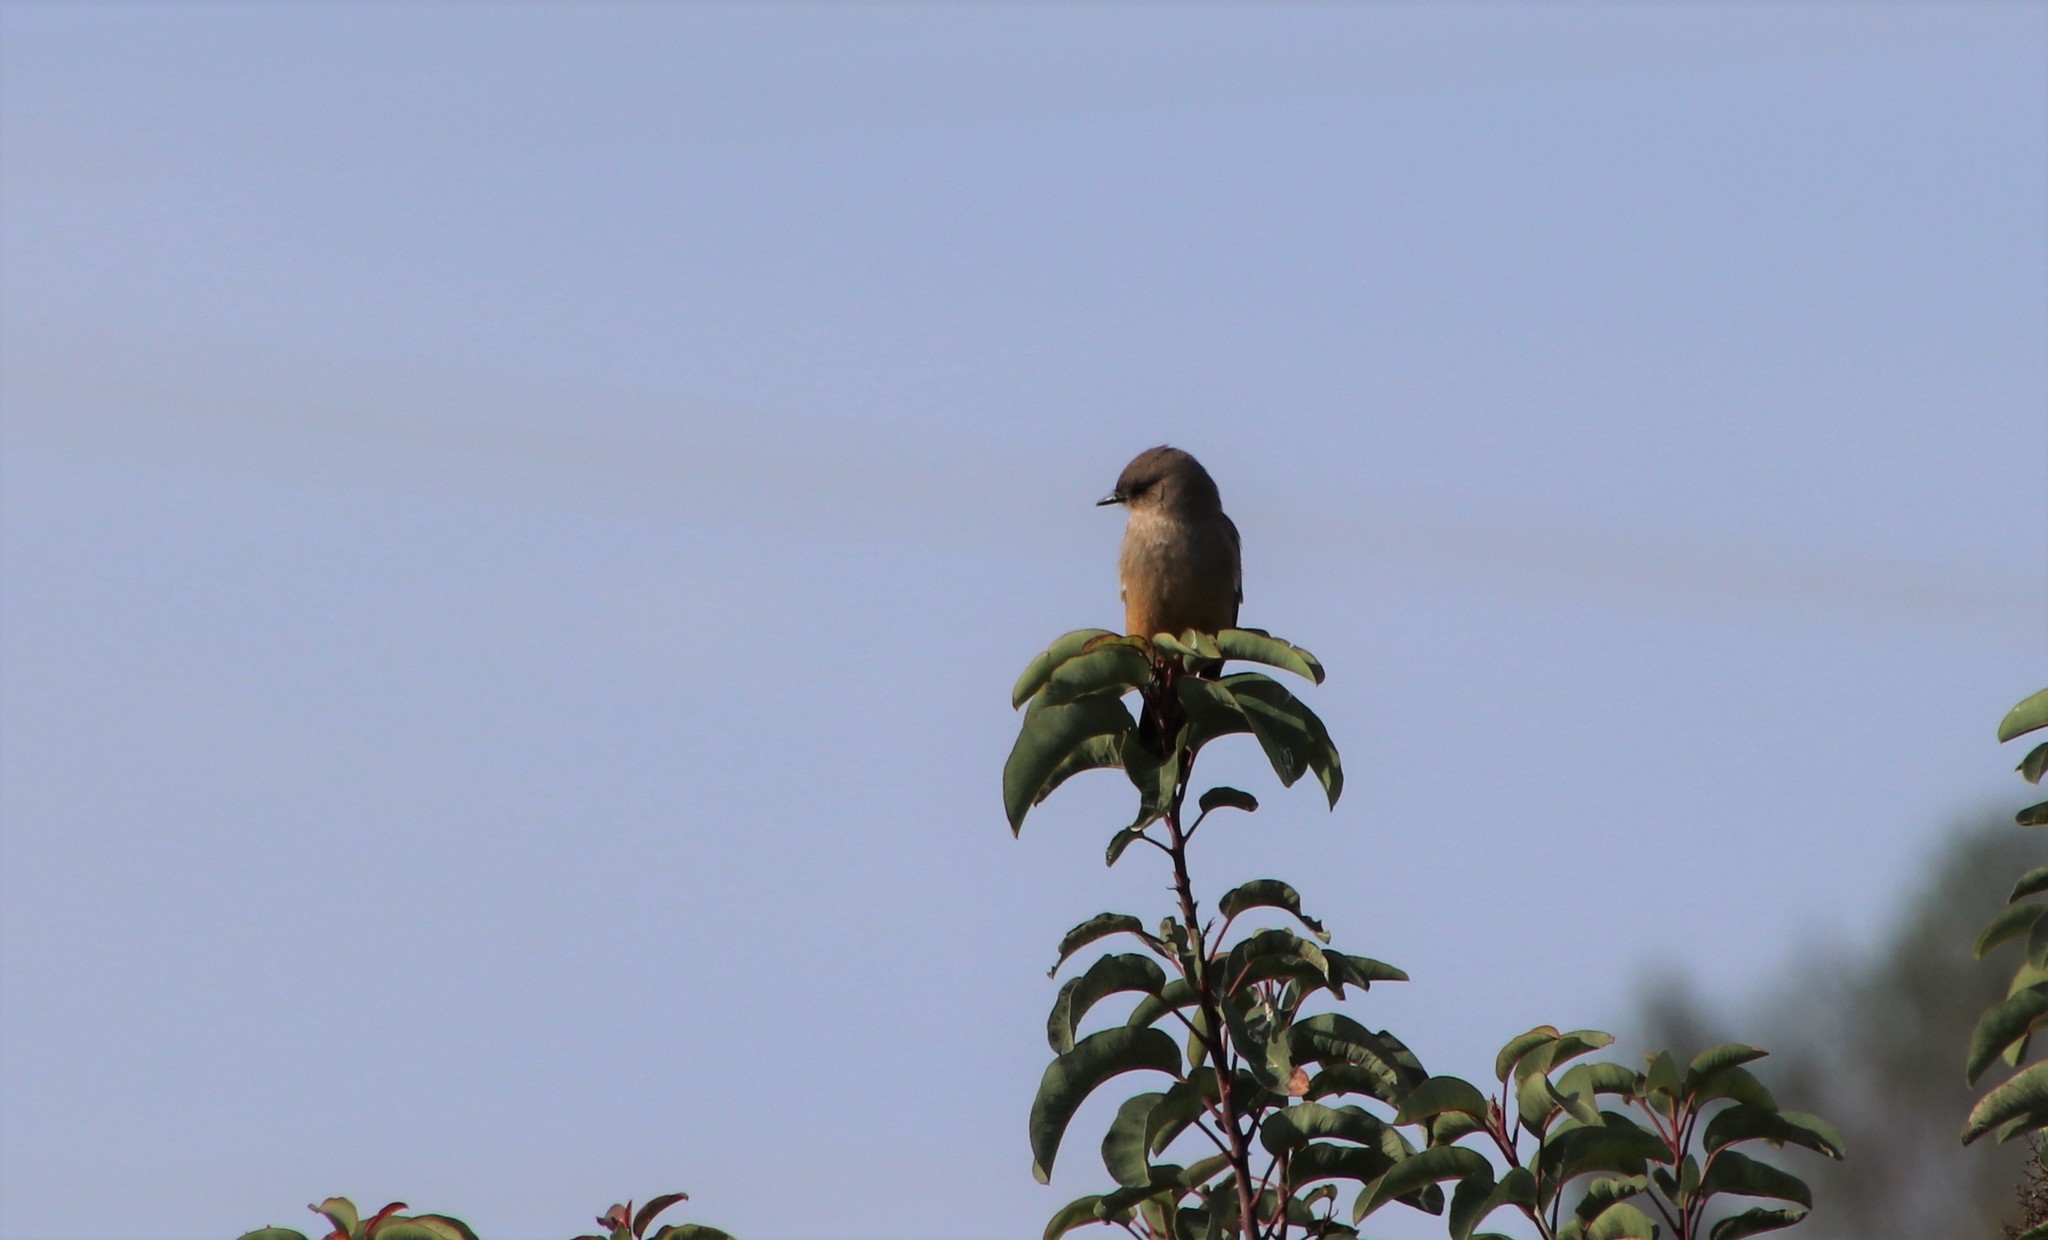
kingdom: Animalia
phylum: Chordata
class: Aves
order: Passeriformes
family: Tyrannidae
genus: Sayornis
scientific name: Sayornis saya
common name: Say's phoebe
